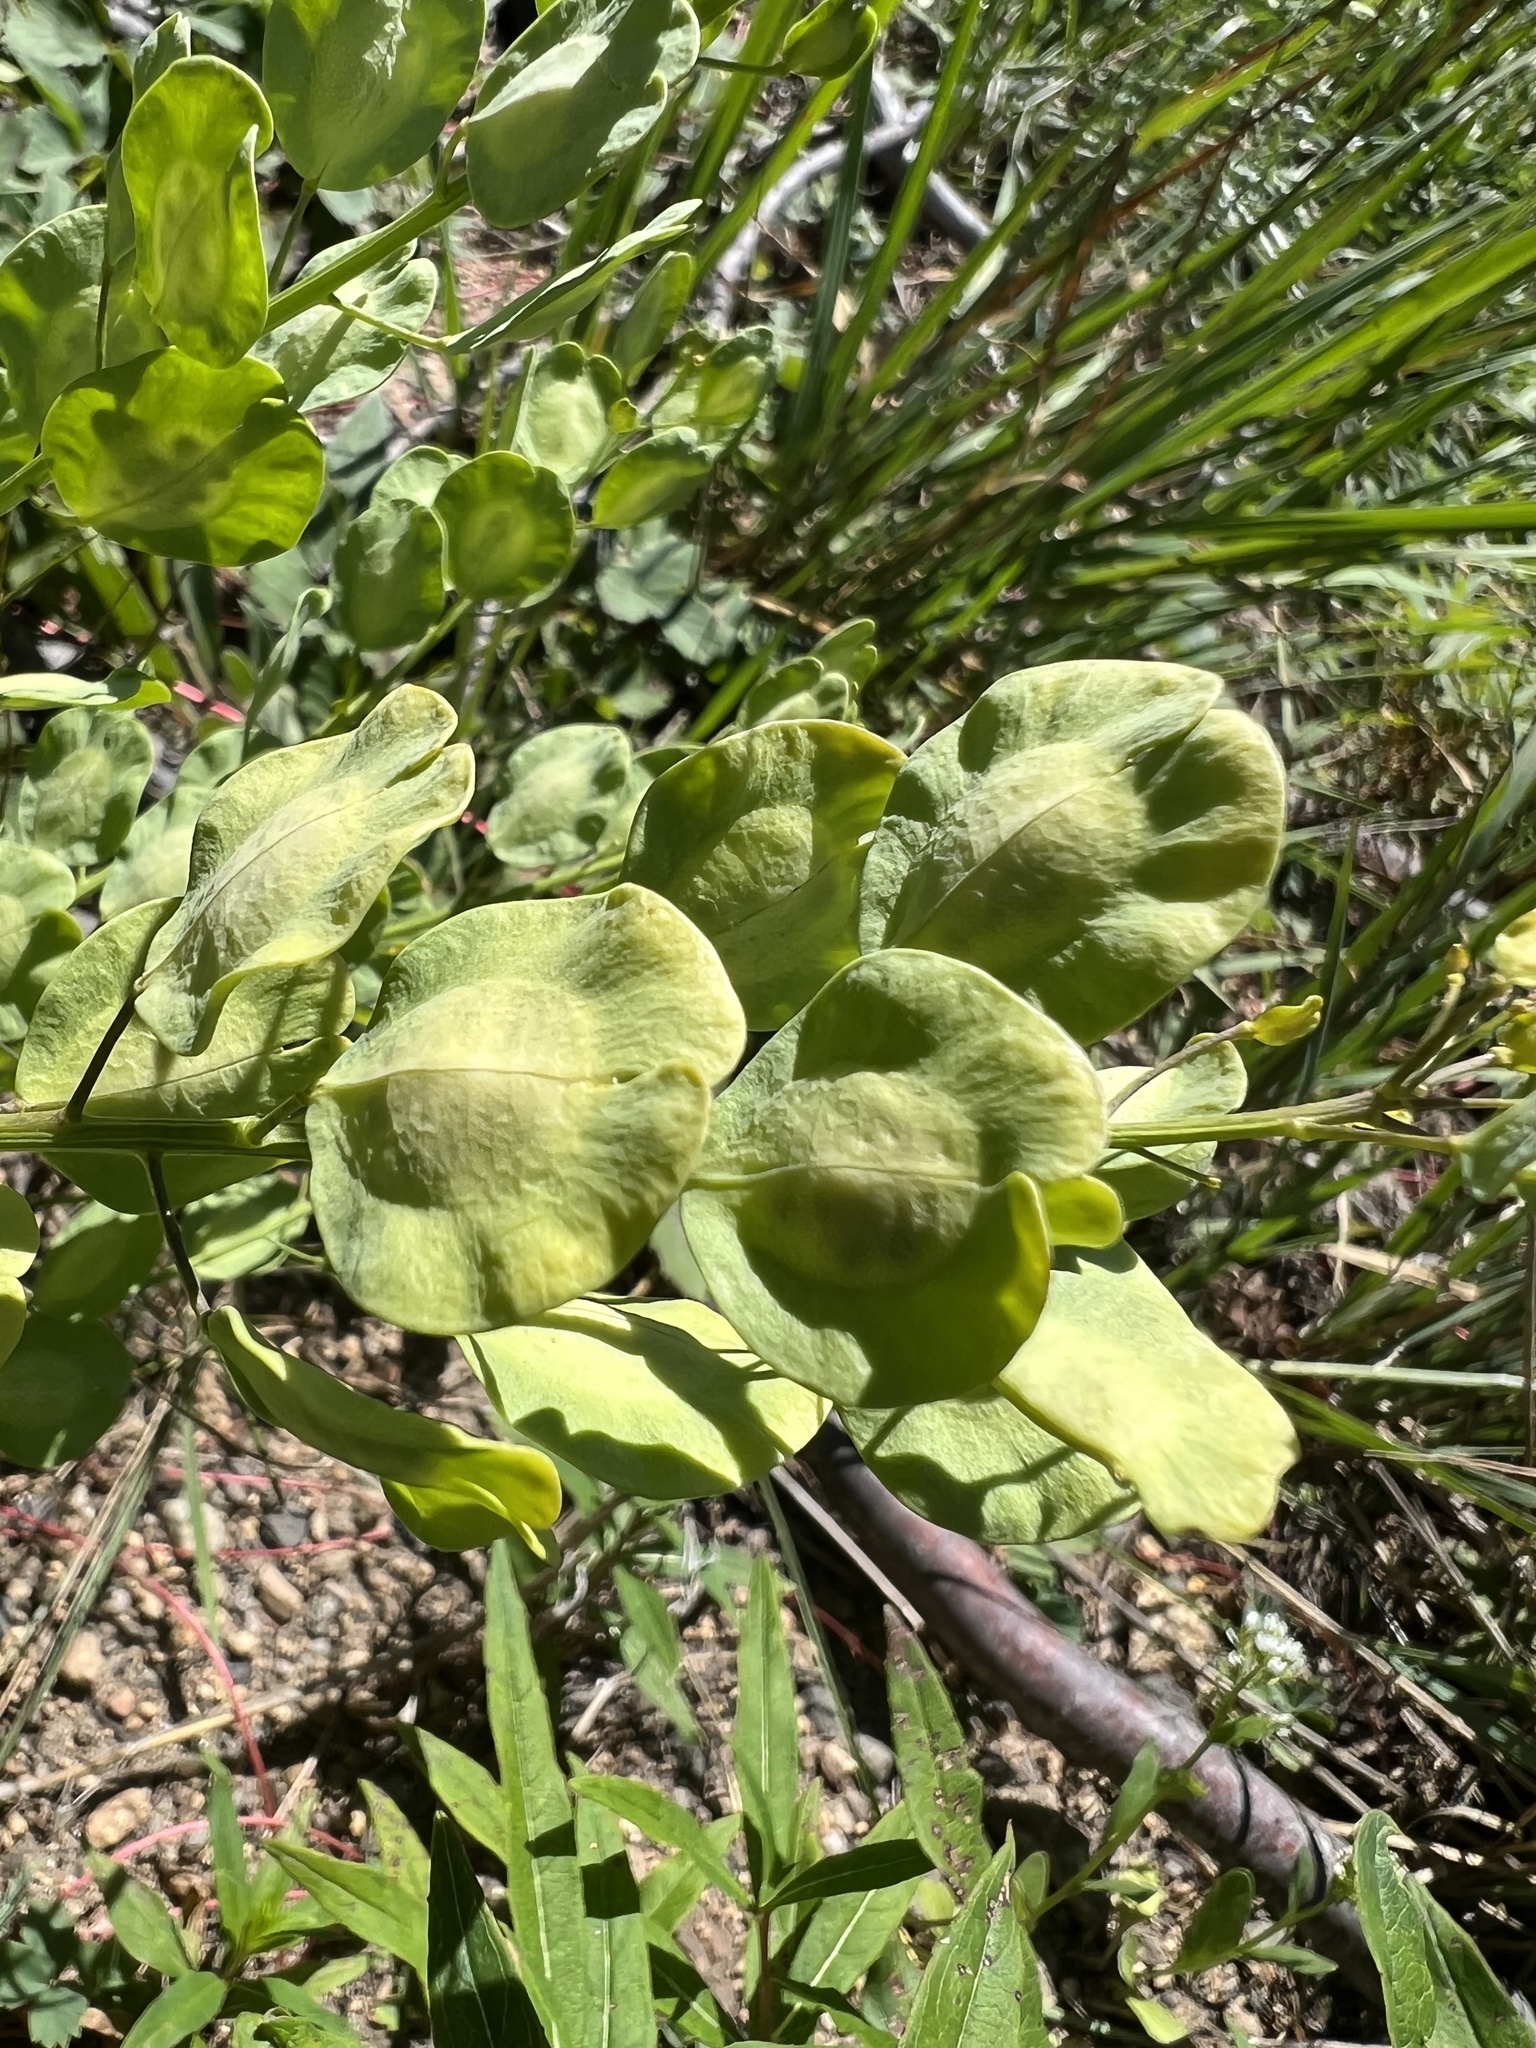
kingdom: Plantae
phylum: Tracheophyta
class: Magnoliopsida
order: Brassicales
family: Brassicaceae
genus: Thlaspi
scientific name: Thlaspi arvense
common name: Field pennycress
